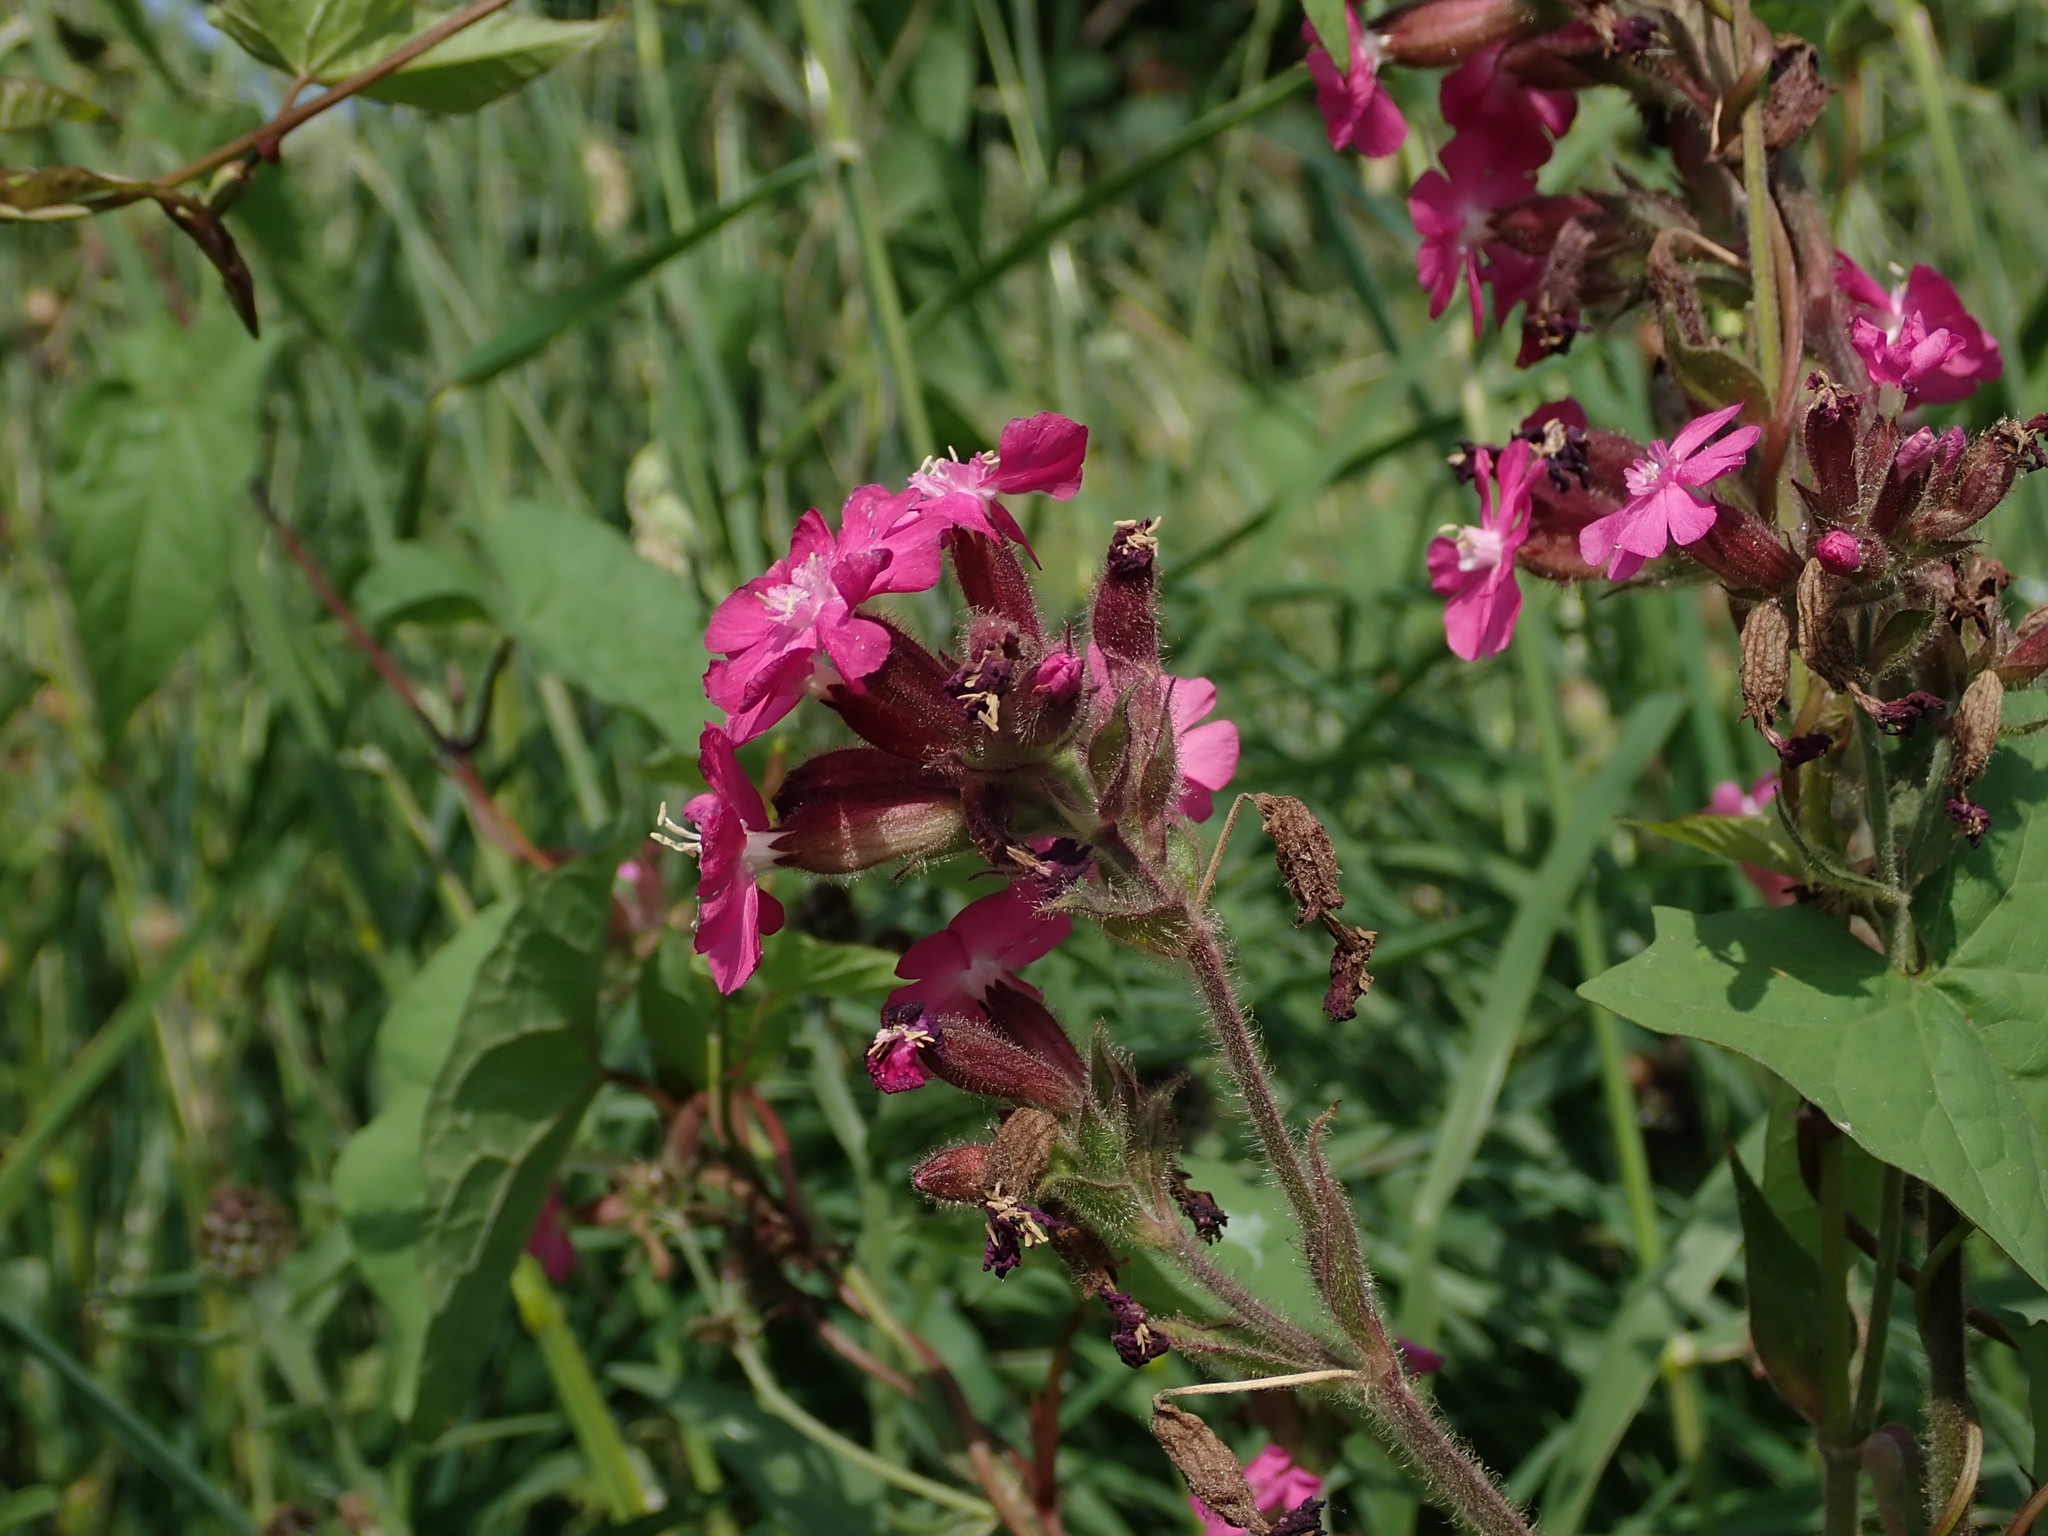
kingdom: Plantae
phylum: Tracheophyta
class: Magnoliopsida
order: Caryophyllales
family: Caryophyllaceae
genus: Silene
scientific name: Silene dioica
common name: Red campion
